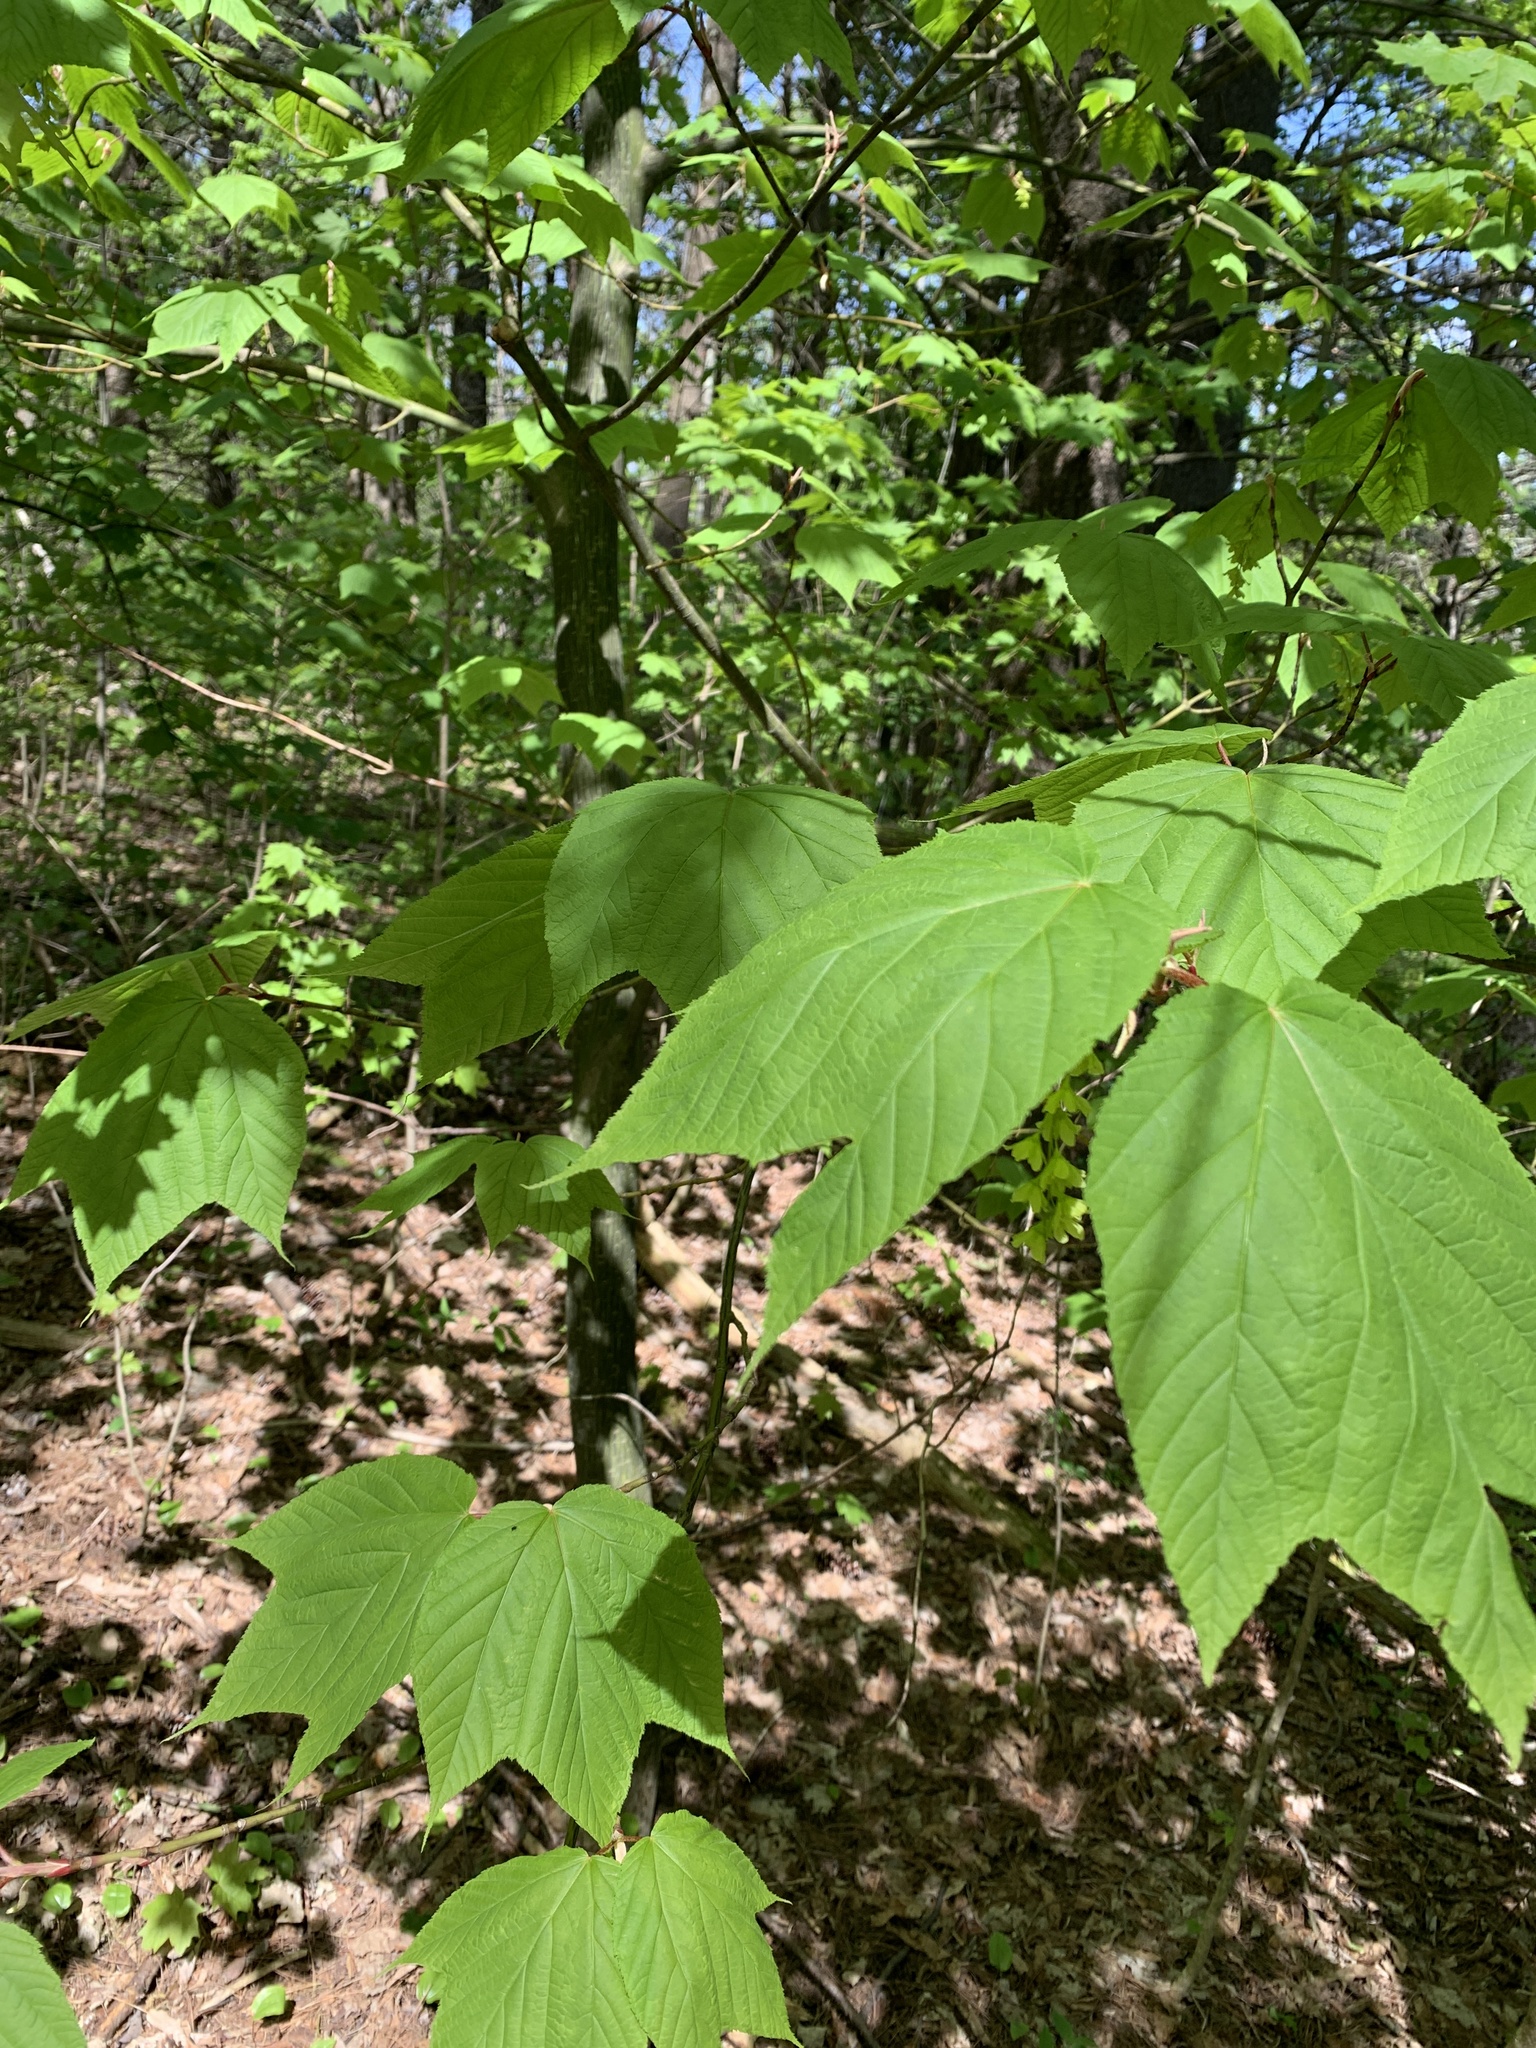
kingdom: Plantae
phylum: Tracheophyta
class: Magnoliopsida
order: Sapindales
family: Sapindaceae
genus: Acer
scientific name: Acer pensylvanicum
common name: Moosewood
